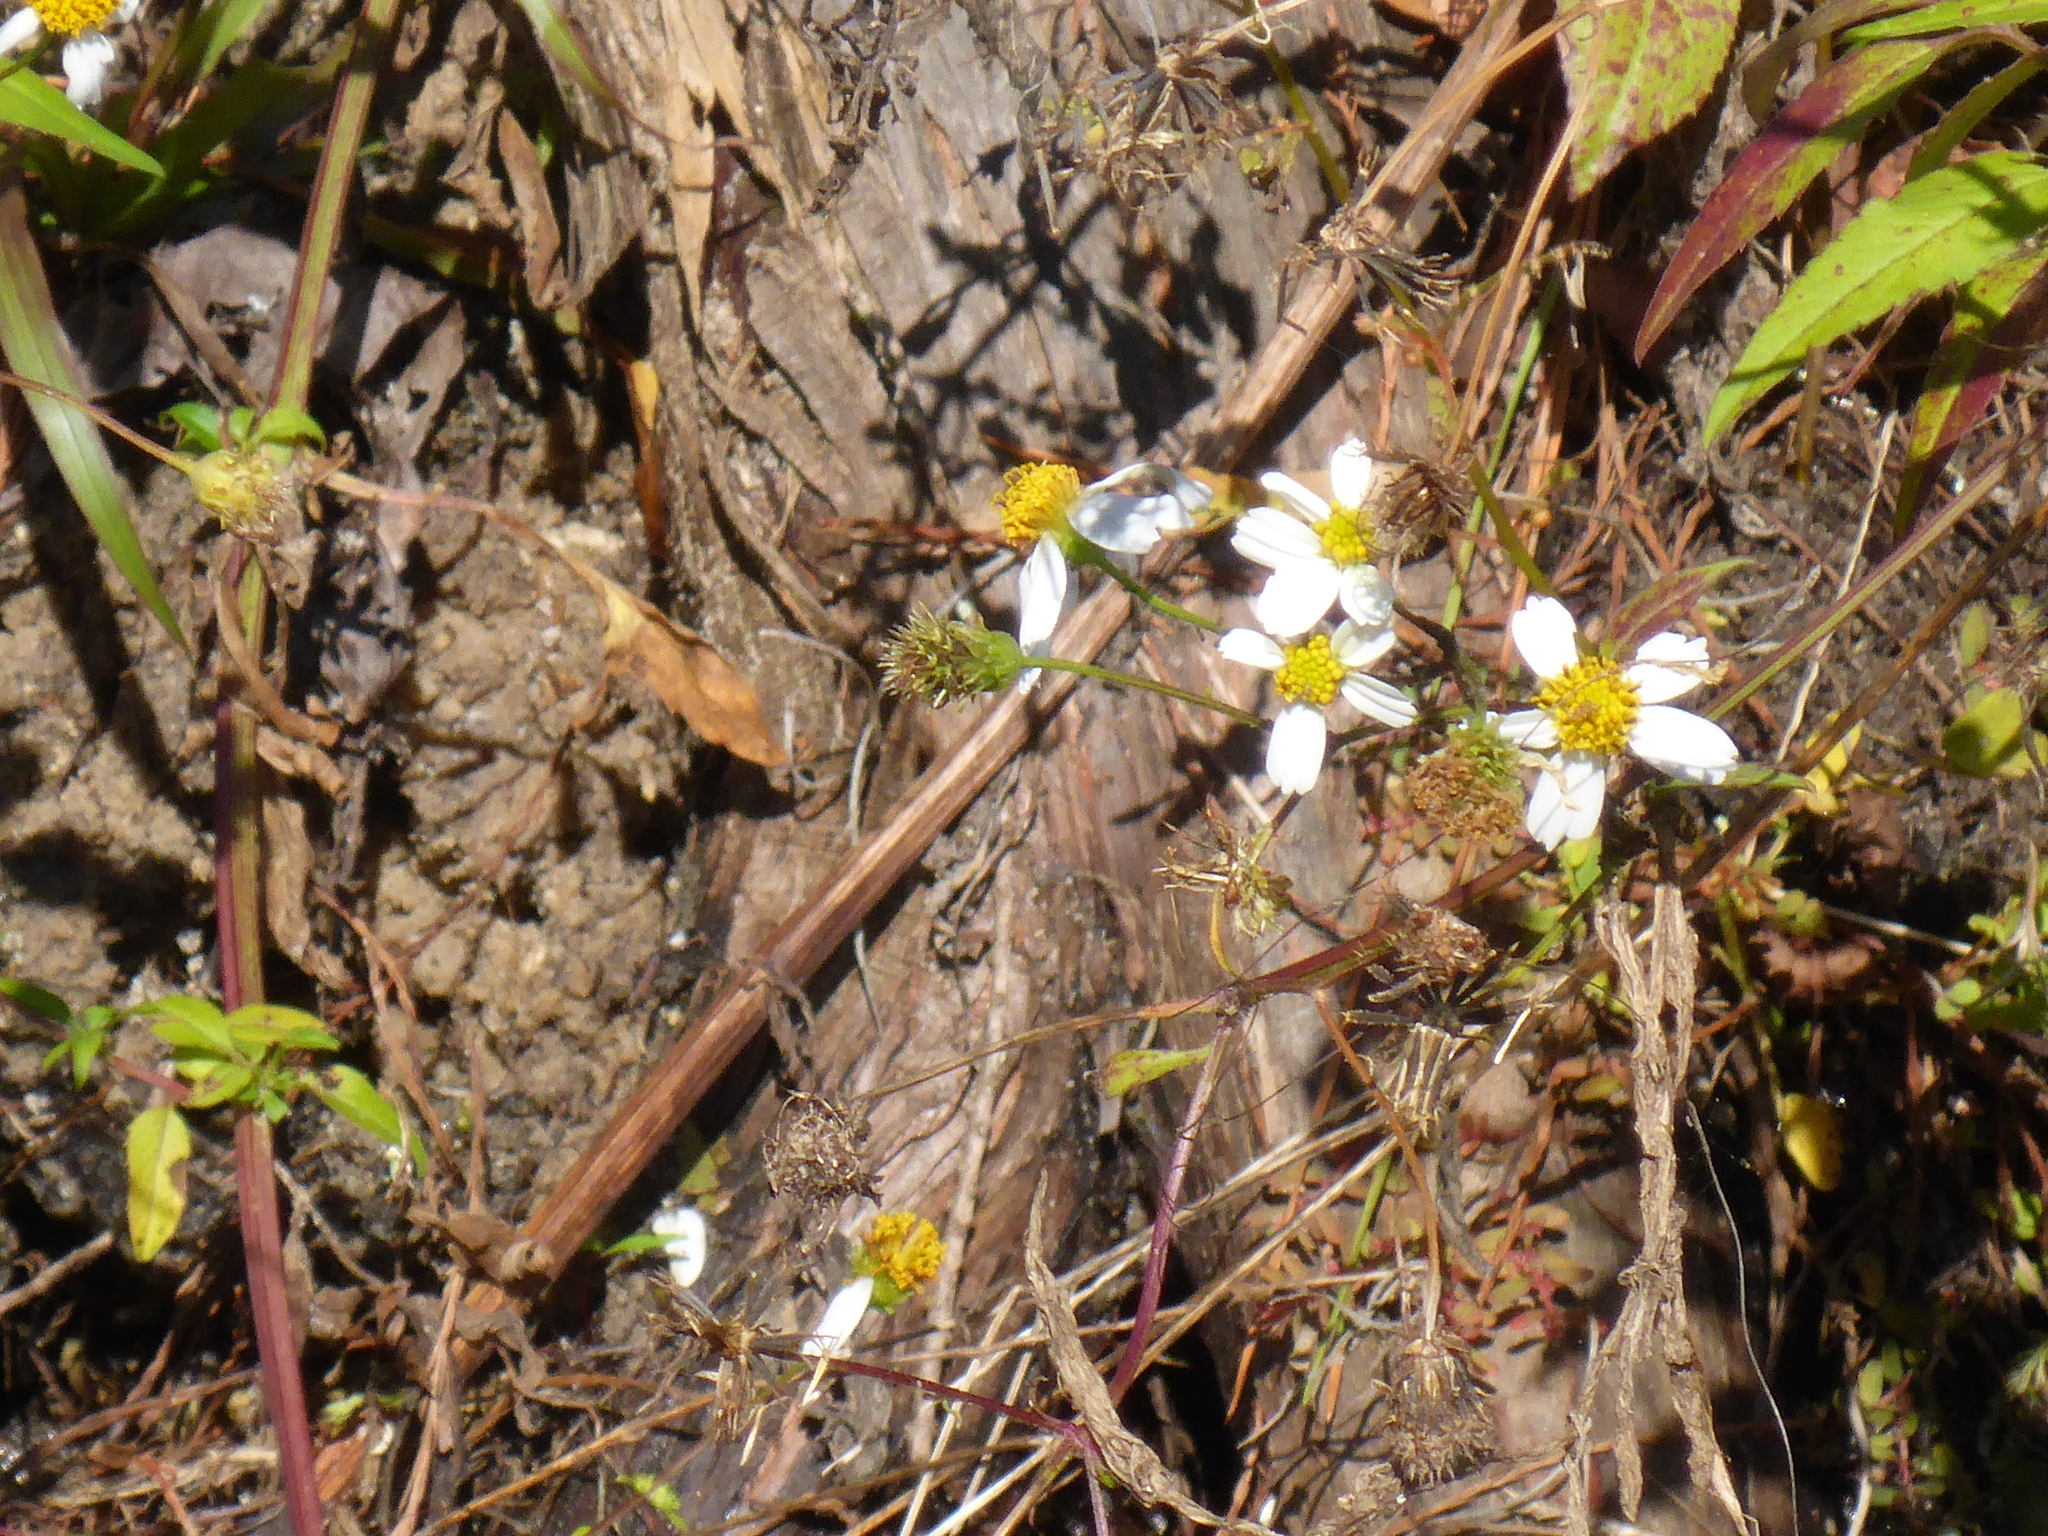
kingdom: Plantae
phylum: Tracheophyta
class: Magnoliopsida
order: Asterales
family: Asteraceae
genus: Bidens
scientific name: Bidens alba
